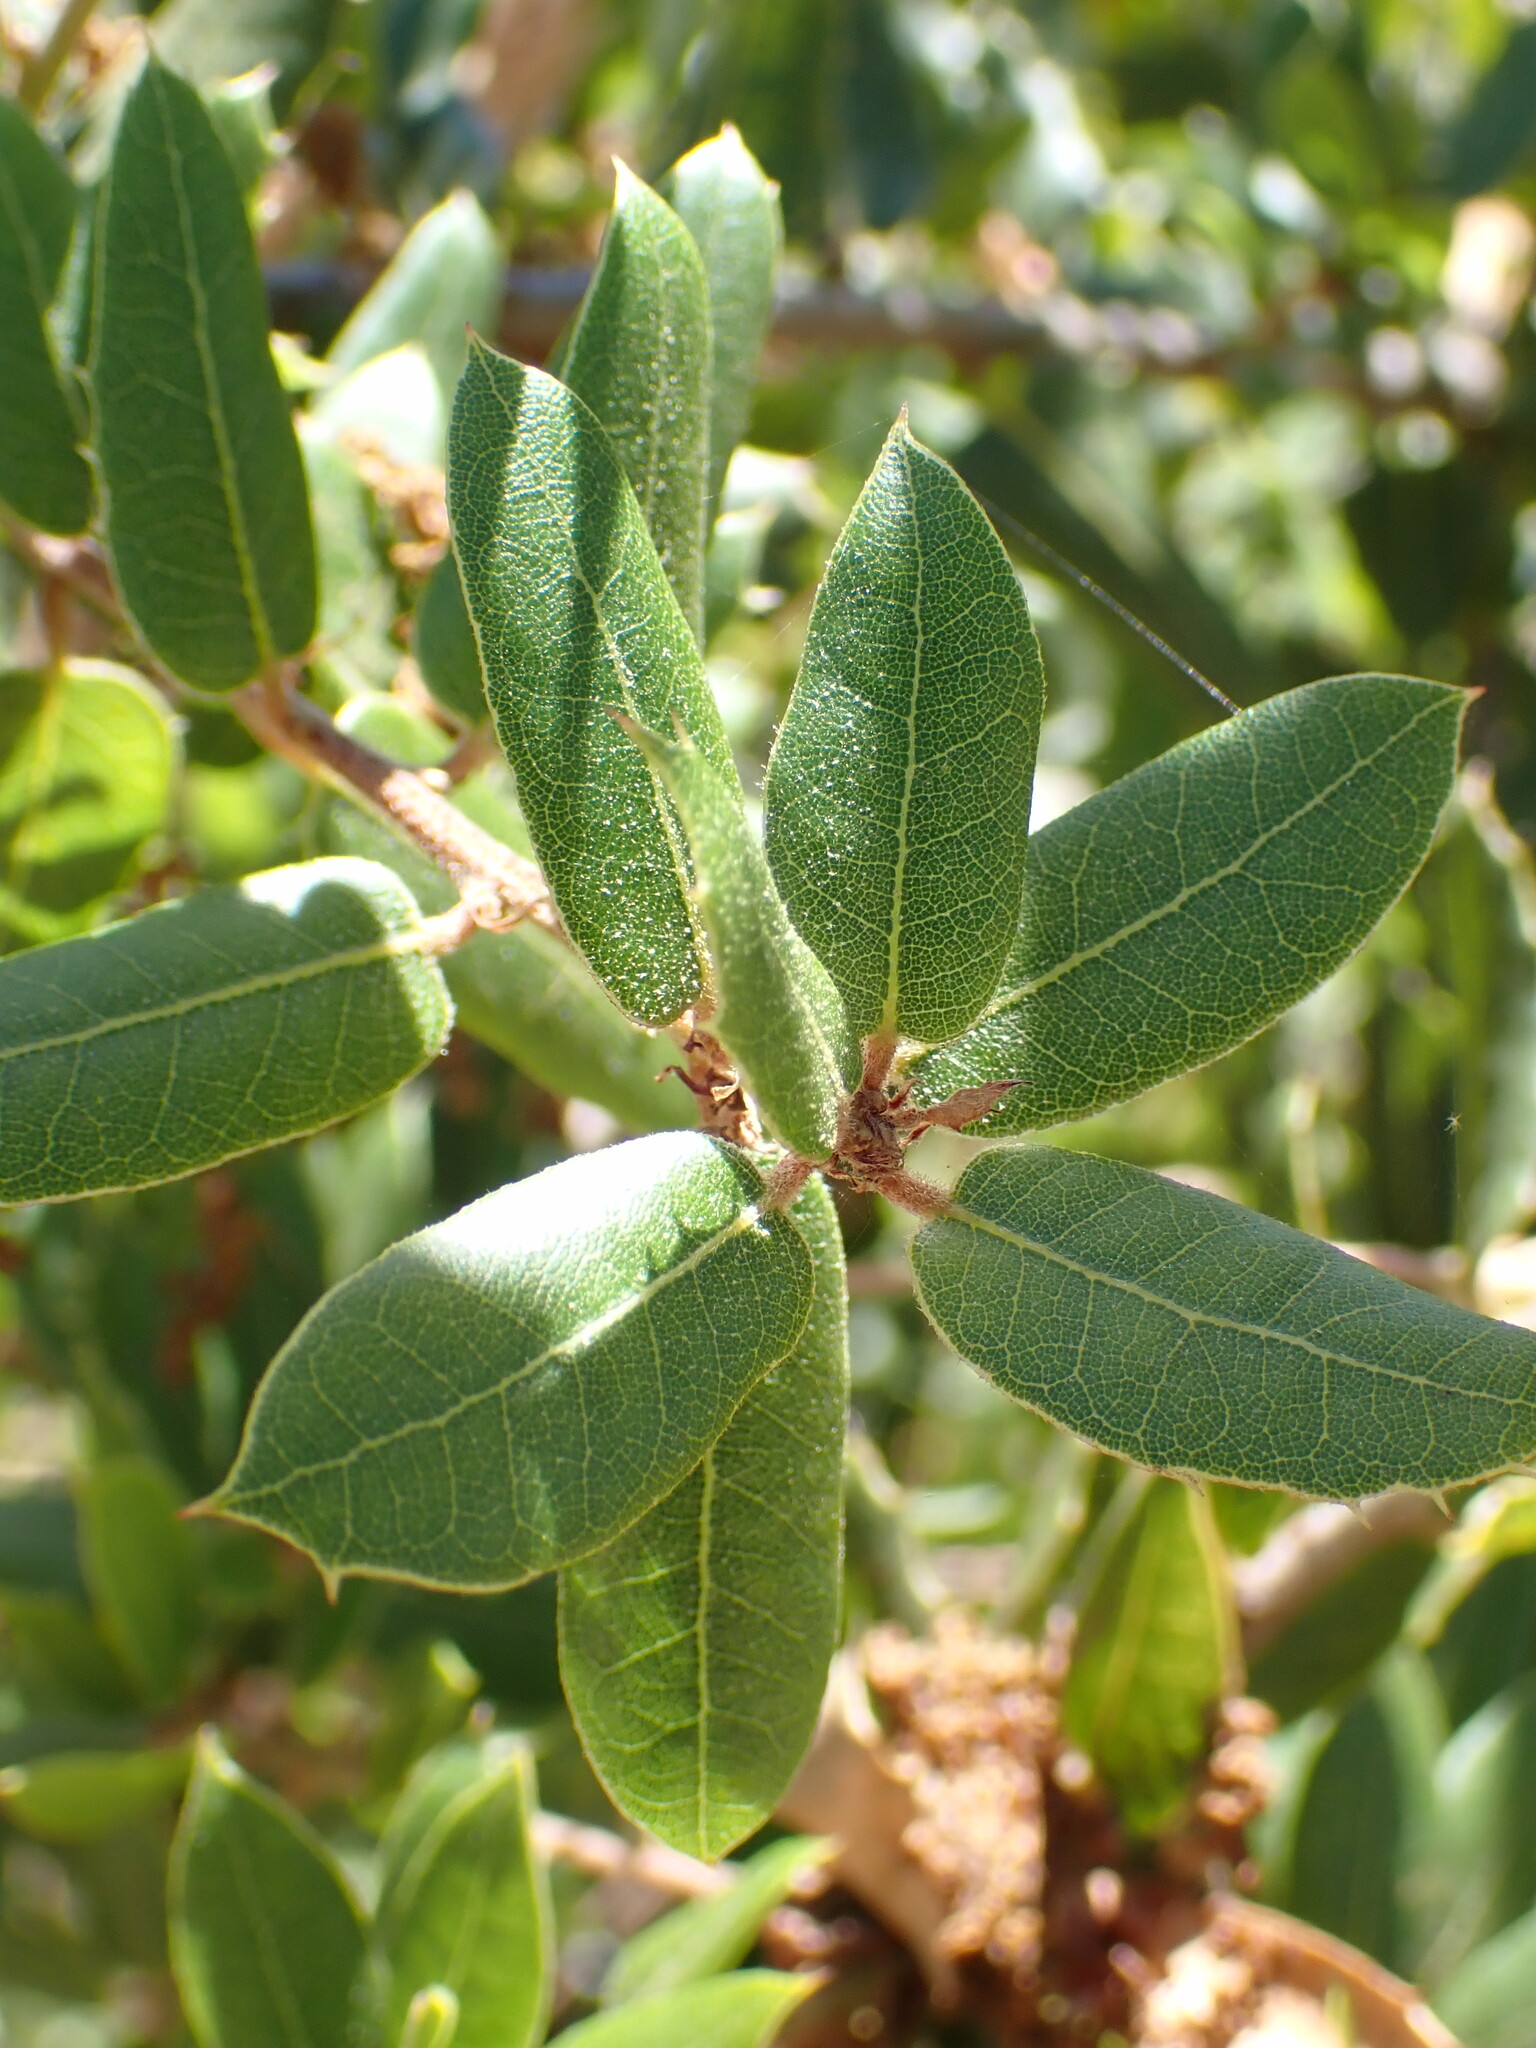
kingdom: Plantae
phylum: Tracheophyta
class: Magnoliopsida
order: Fagales
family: Fagaceae
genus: Quercus
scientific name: Quercus wislizeni
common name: Interior live oak
